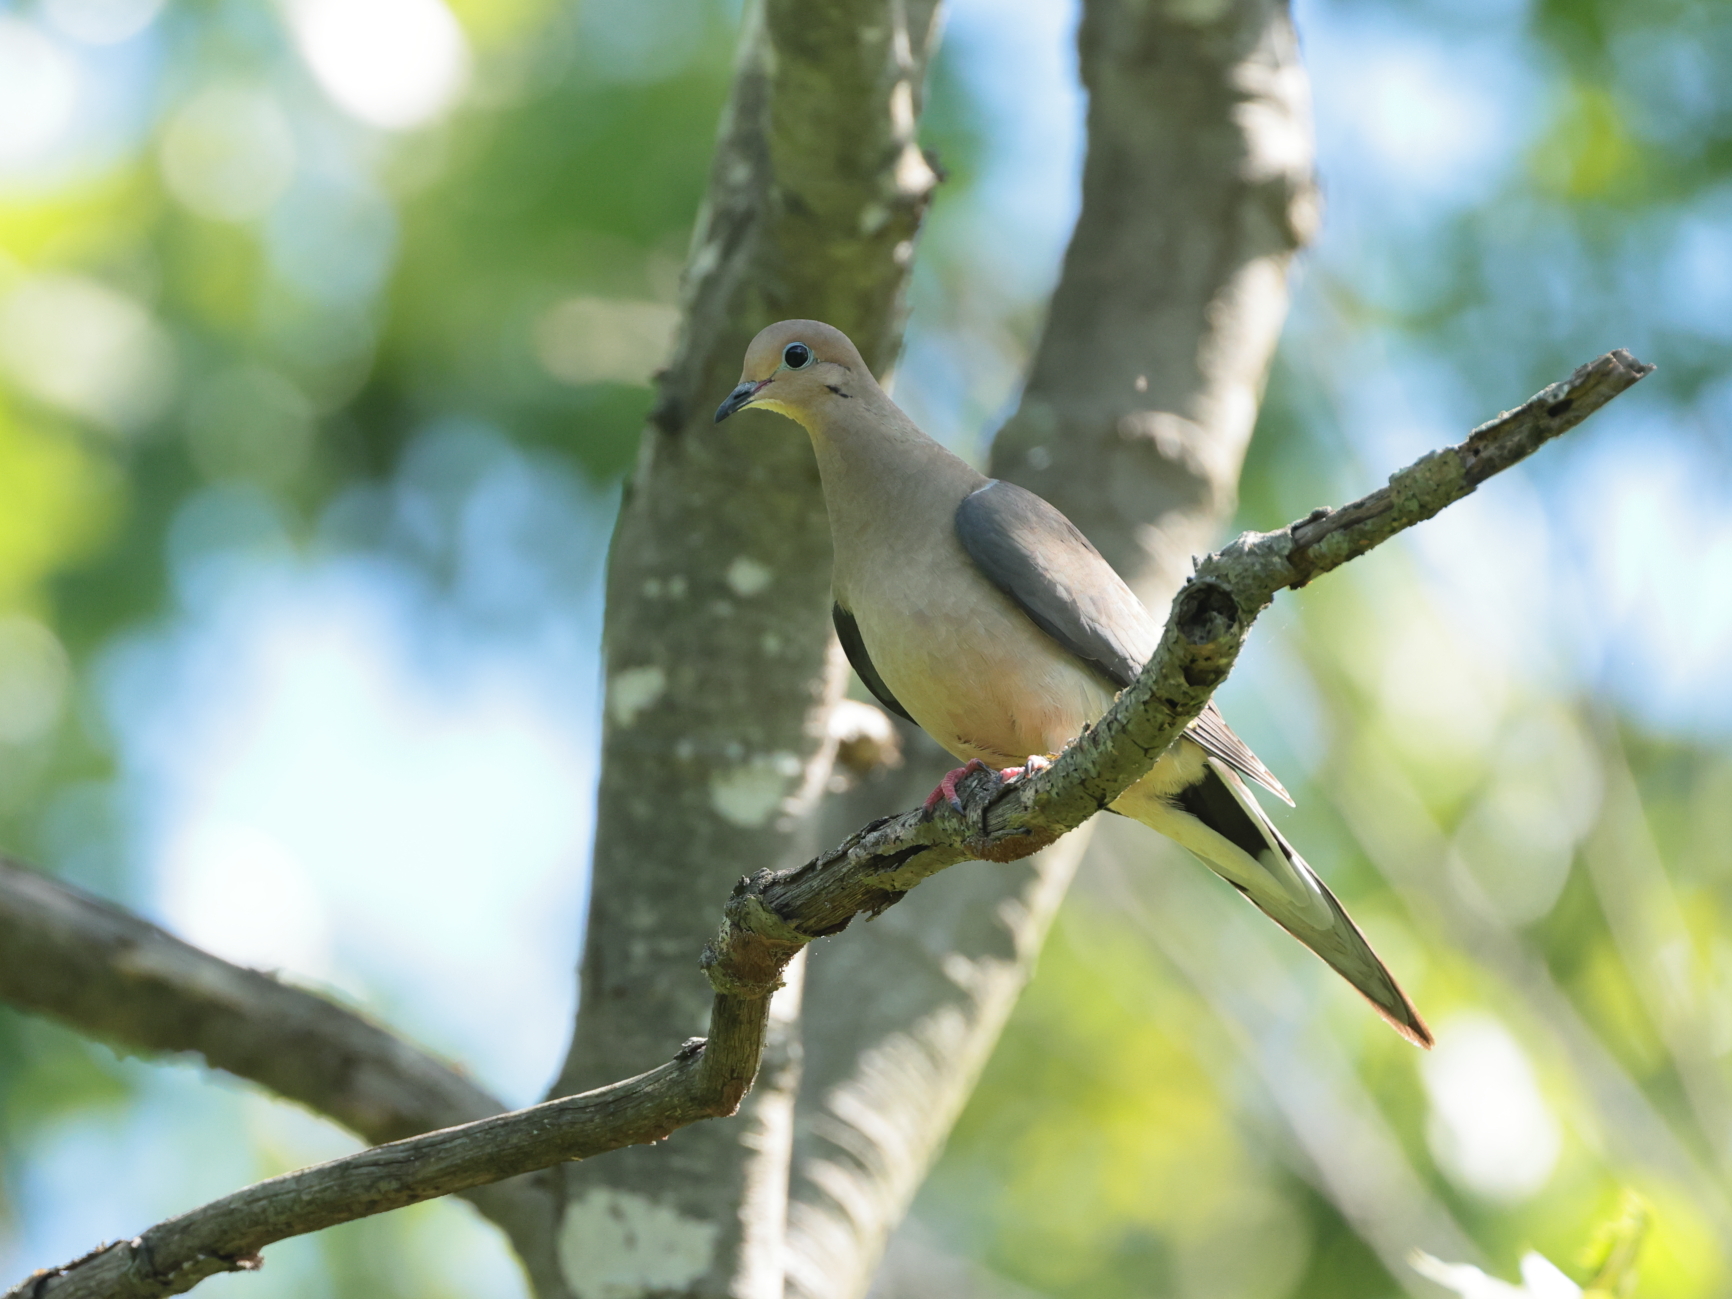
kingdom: Animalia
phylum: Chordata
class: Aves
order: Columbiformes
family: Columbidae
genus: Zenaida
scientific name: Zenaida macroura
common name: Mourning dove
